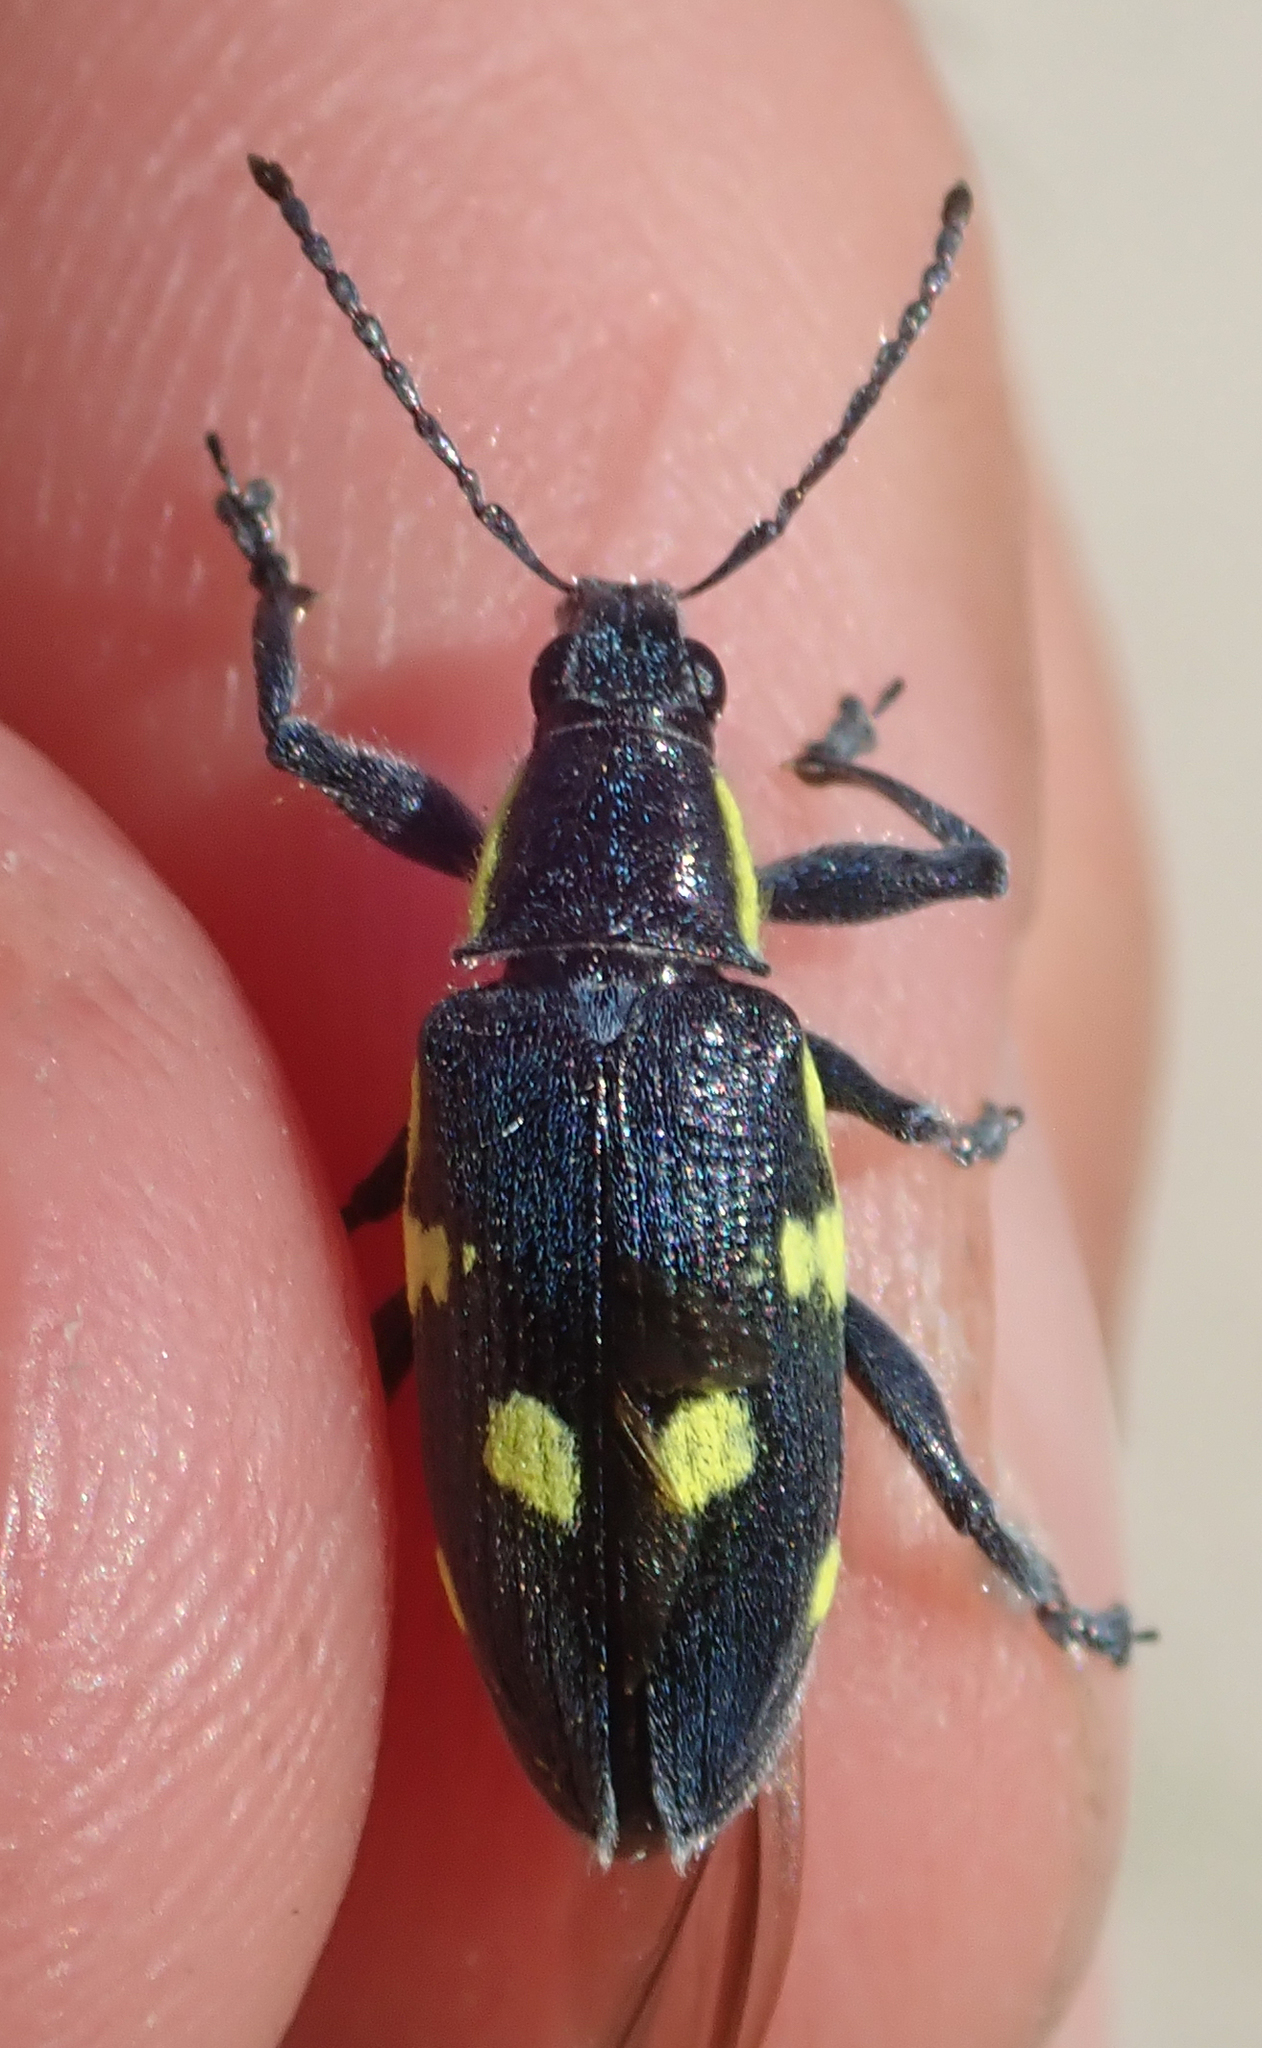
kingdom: Animalia
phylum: Arthropoda
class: Insecta
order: Coleoptera
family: Curculionidae
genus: Polyclaeis
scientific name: Polyclaeis longicornis
